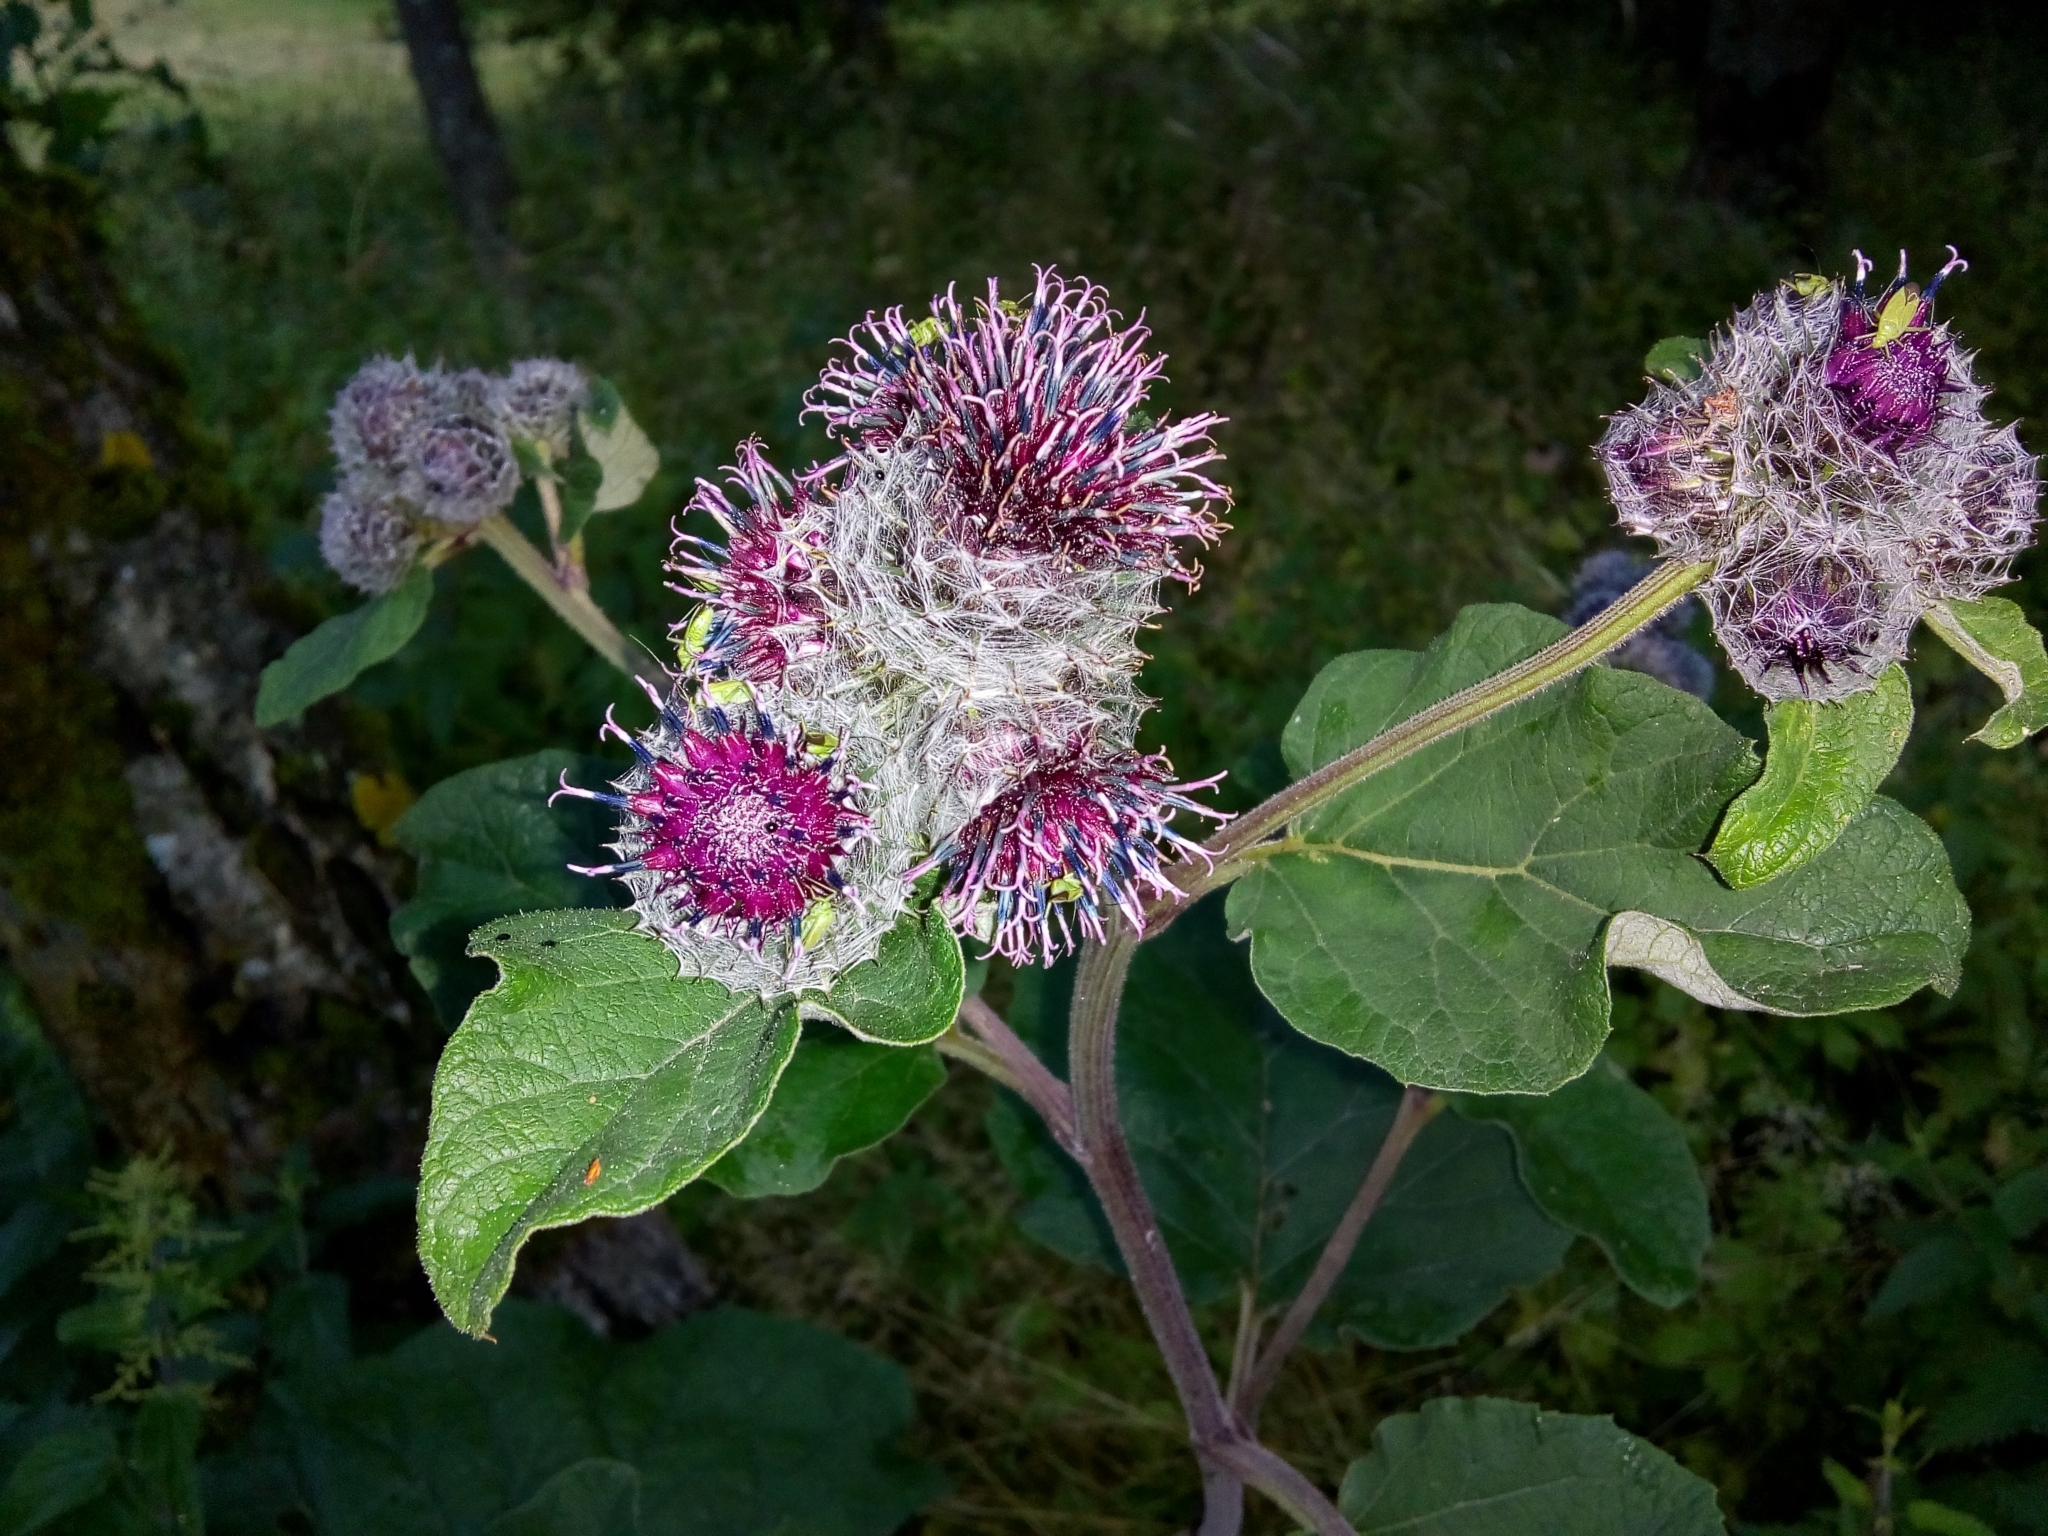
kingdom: Plantae
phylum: Tracheophyta
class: Magnoliopsida
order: Asterales
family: Asteraceae
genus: Arctium
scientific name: Arctium tomentosum
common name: Woolly burdock
